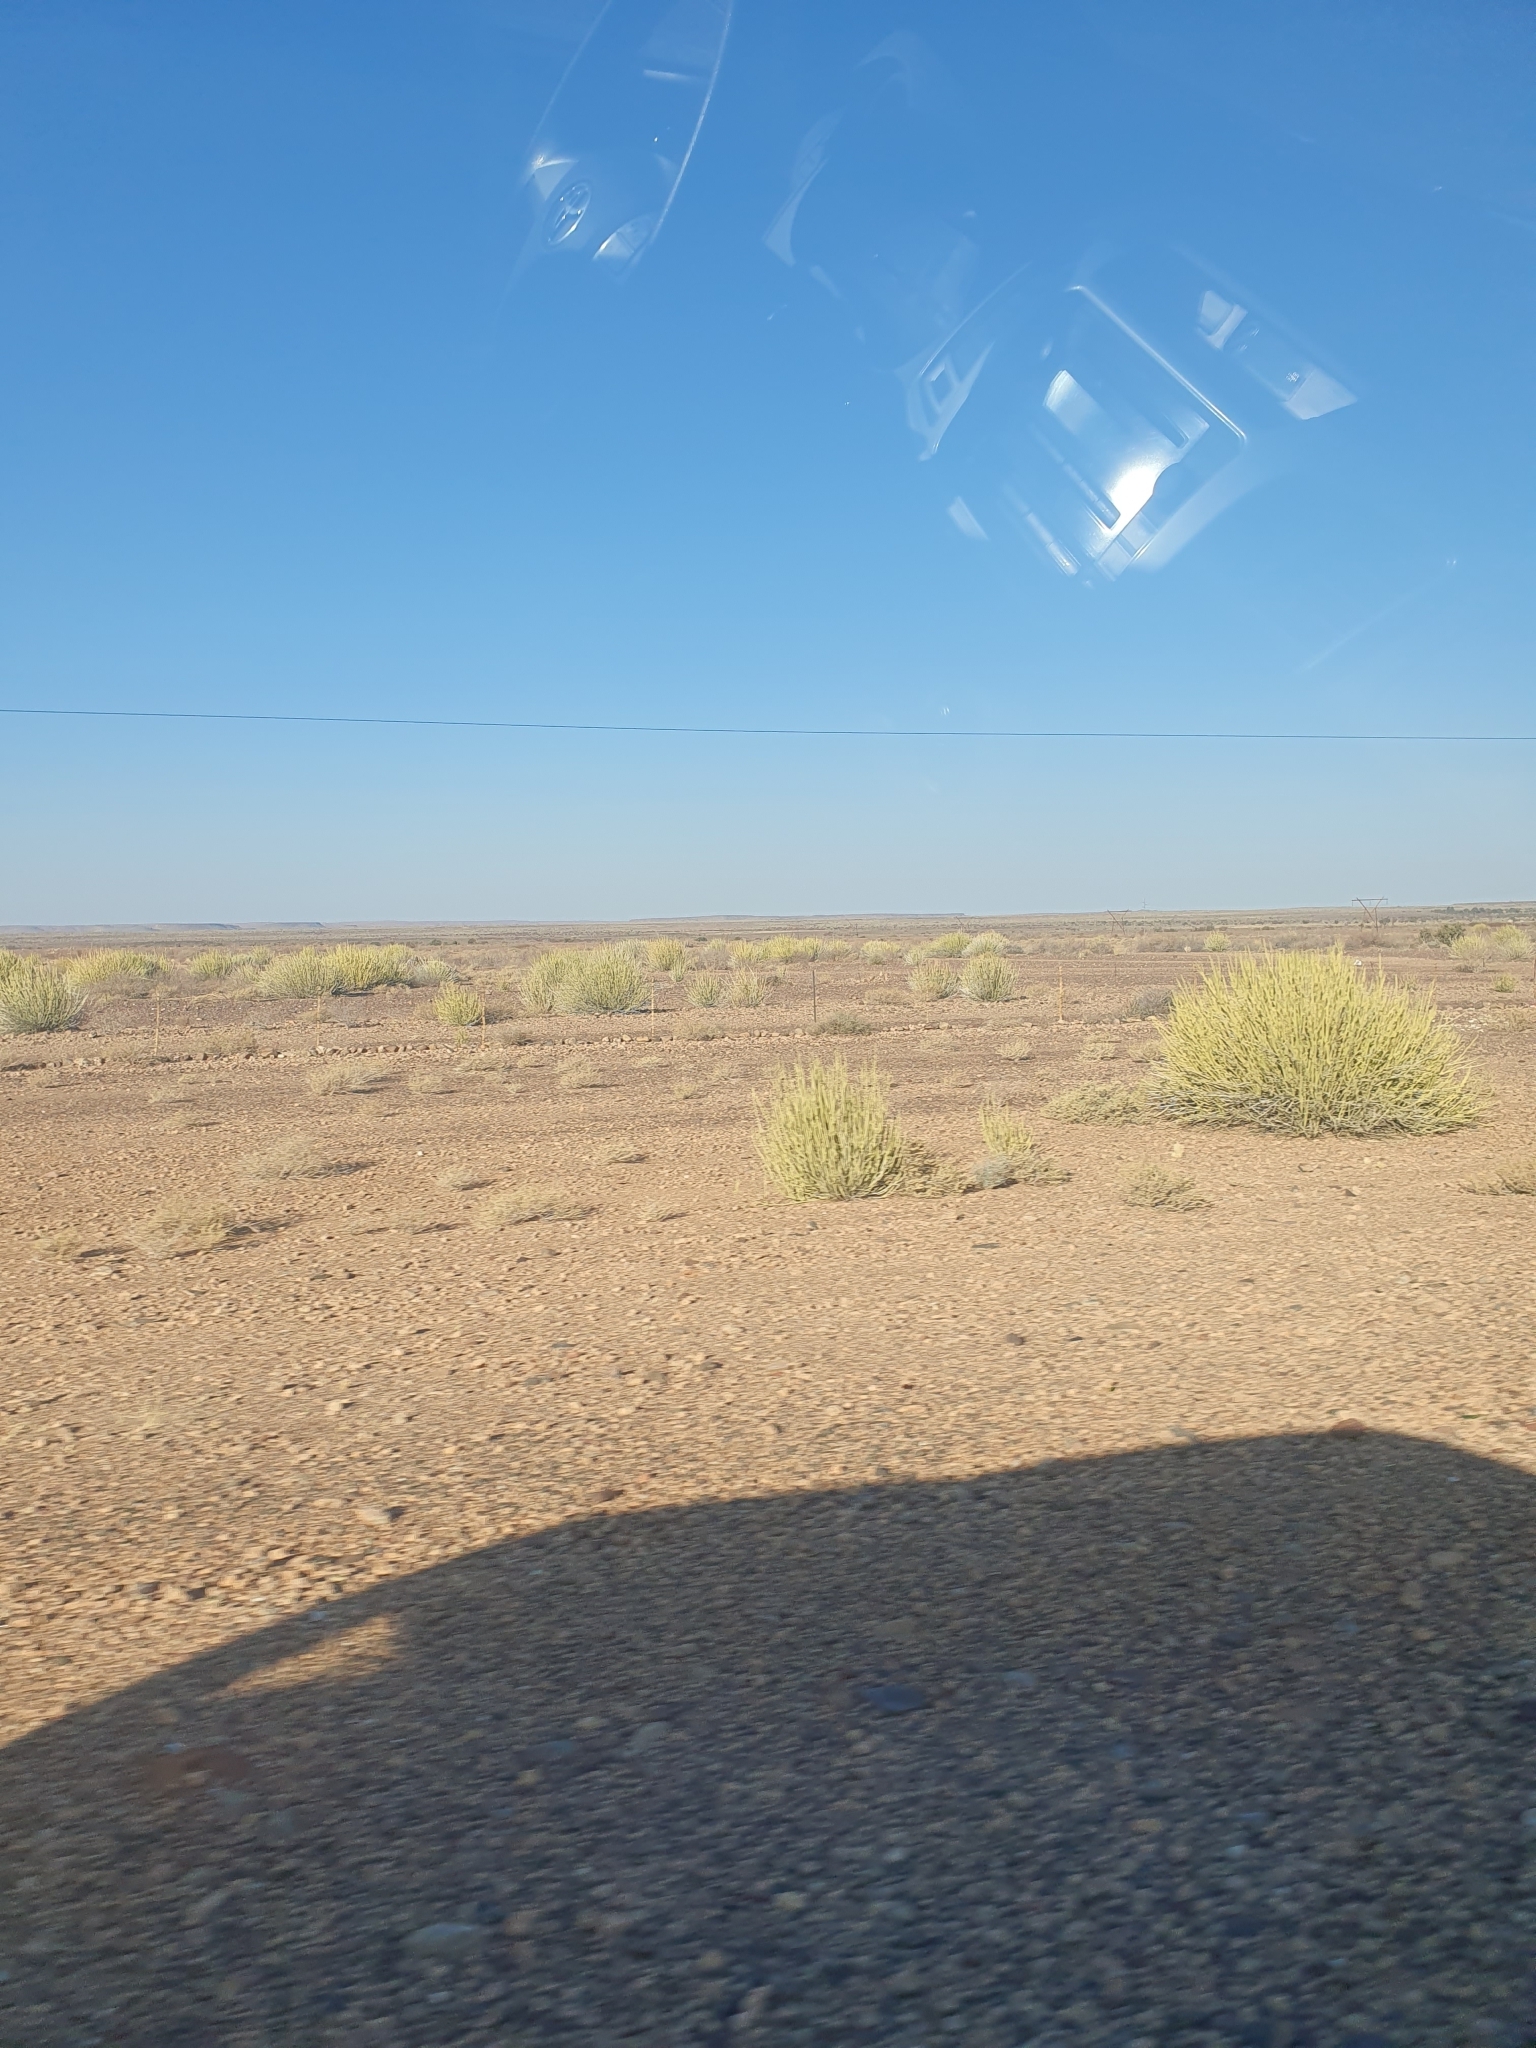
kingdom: Plantae
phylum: Tracheophyta
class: Magnoliopsida
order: Malpighiales
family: Euphorbiaceae
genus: Euphorbia
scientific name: Euphorbia gregaria
